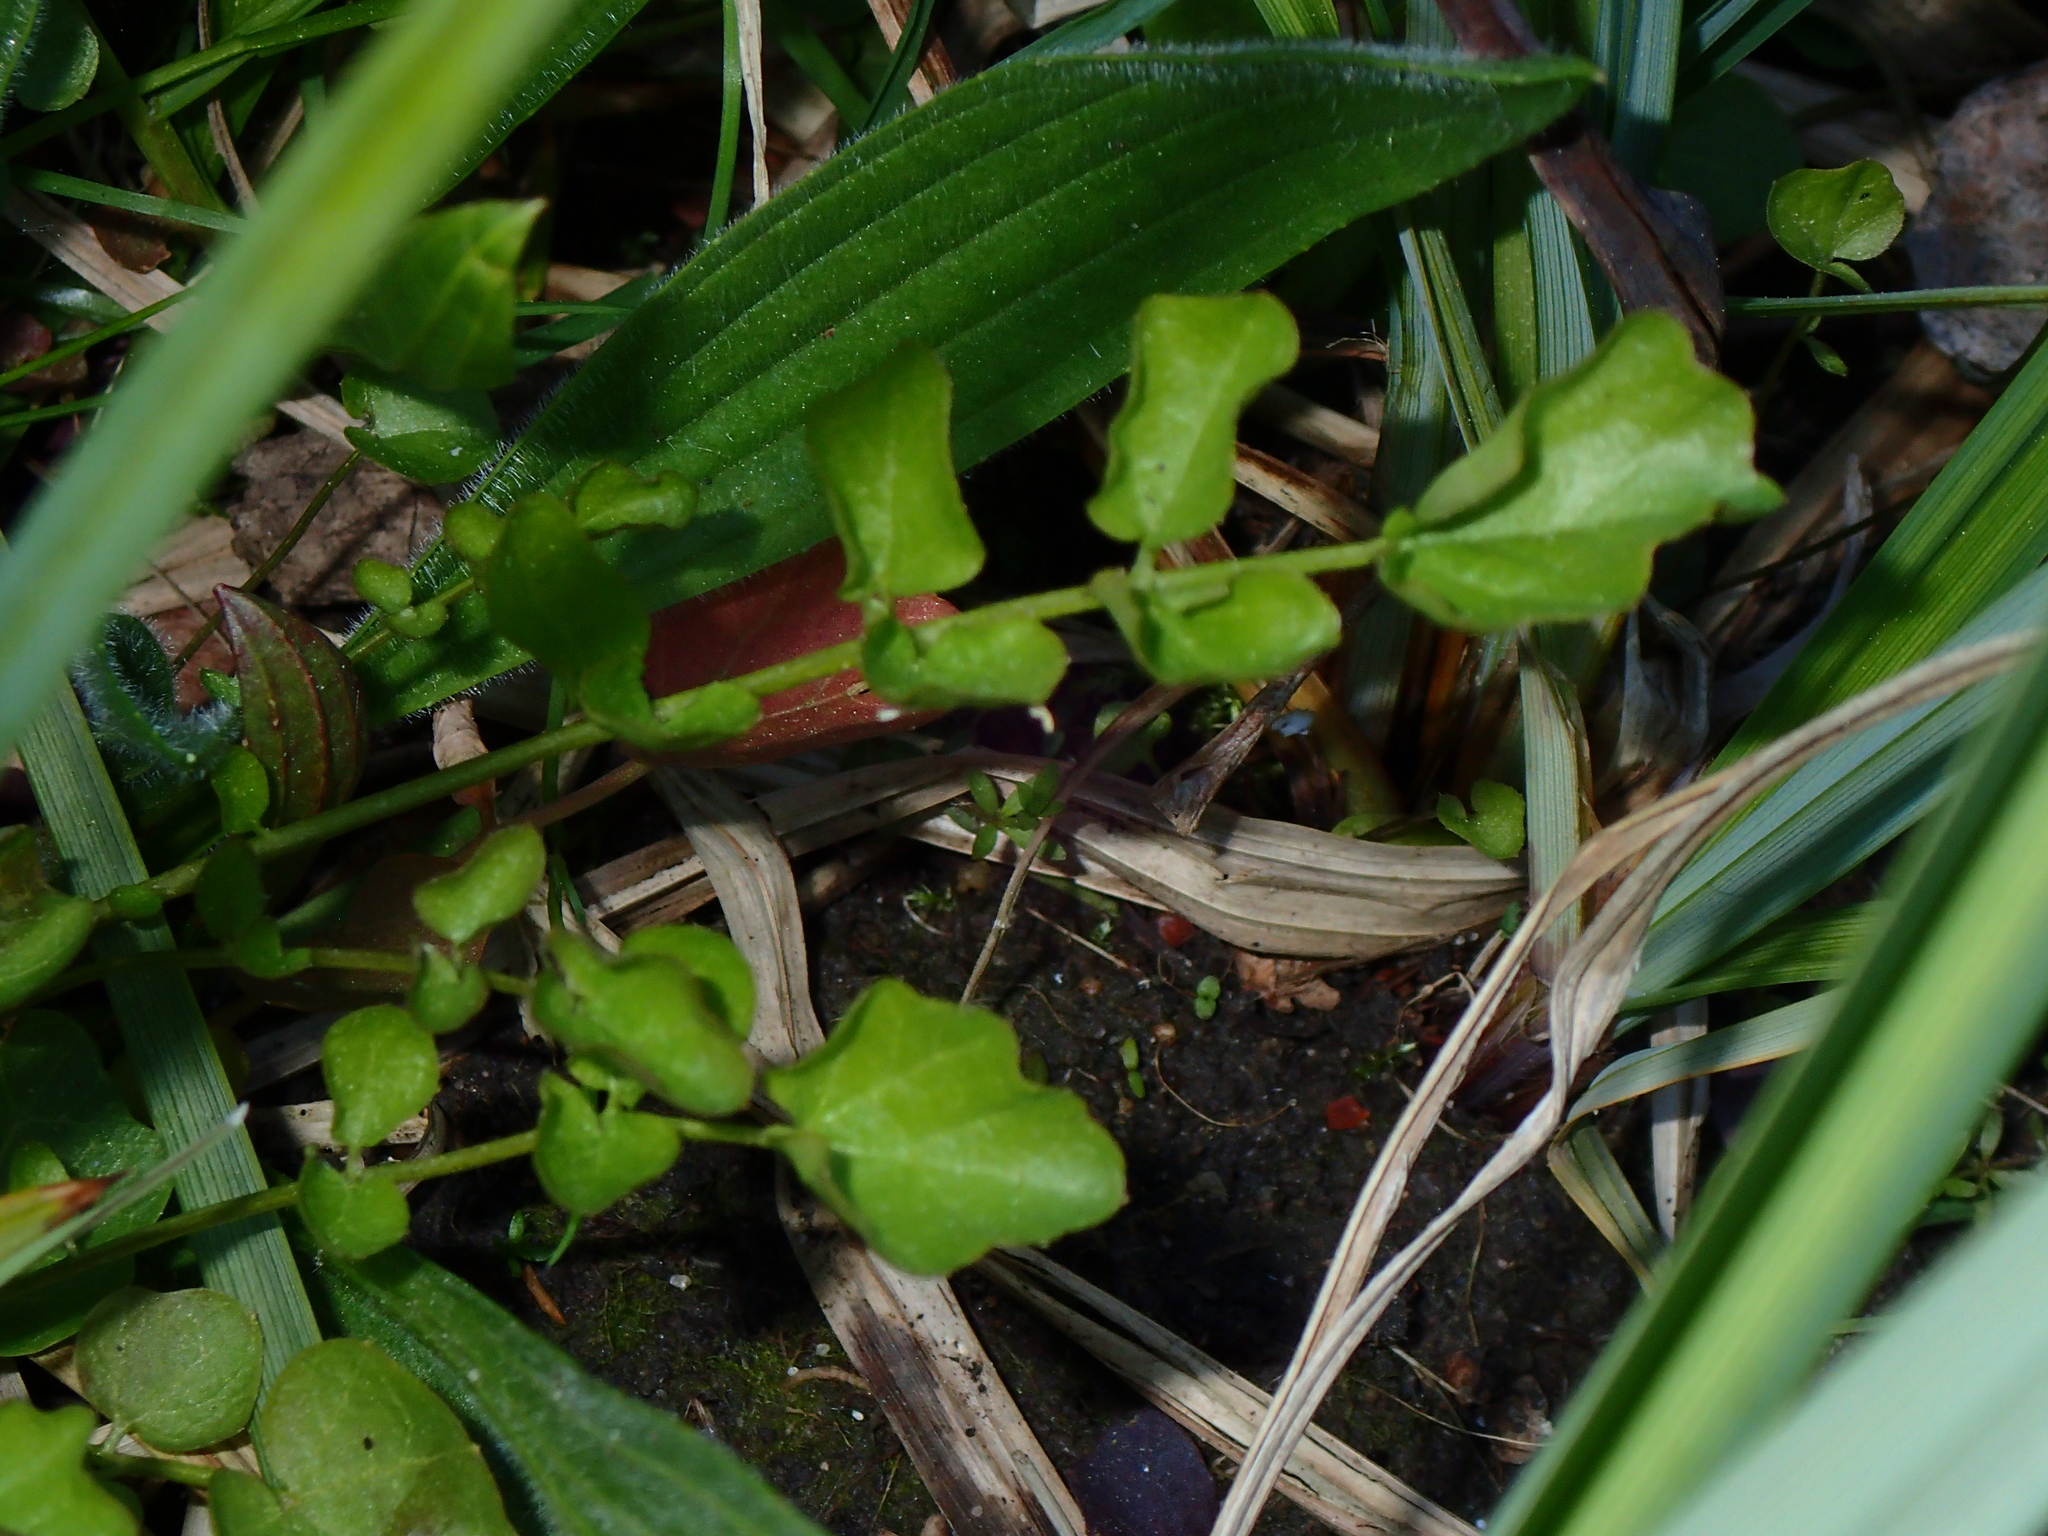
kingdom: Plantae
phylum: Tracheophyta
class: Magnoliopsida
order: Brassicales
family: Brassicaceae
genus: Cardamine
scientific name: Cardamine pratensis
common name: Cuckoo flower
